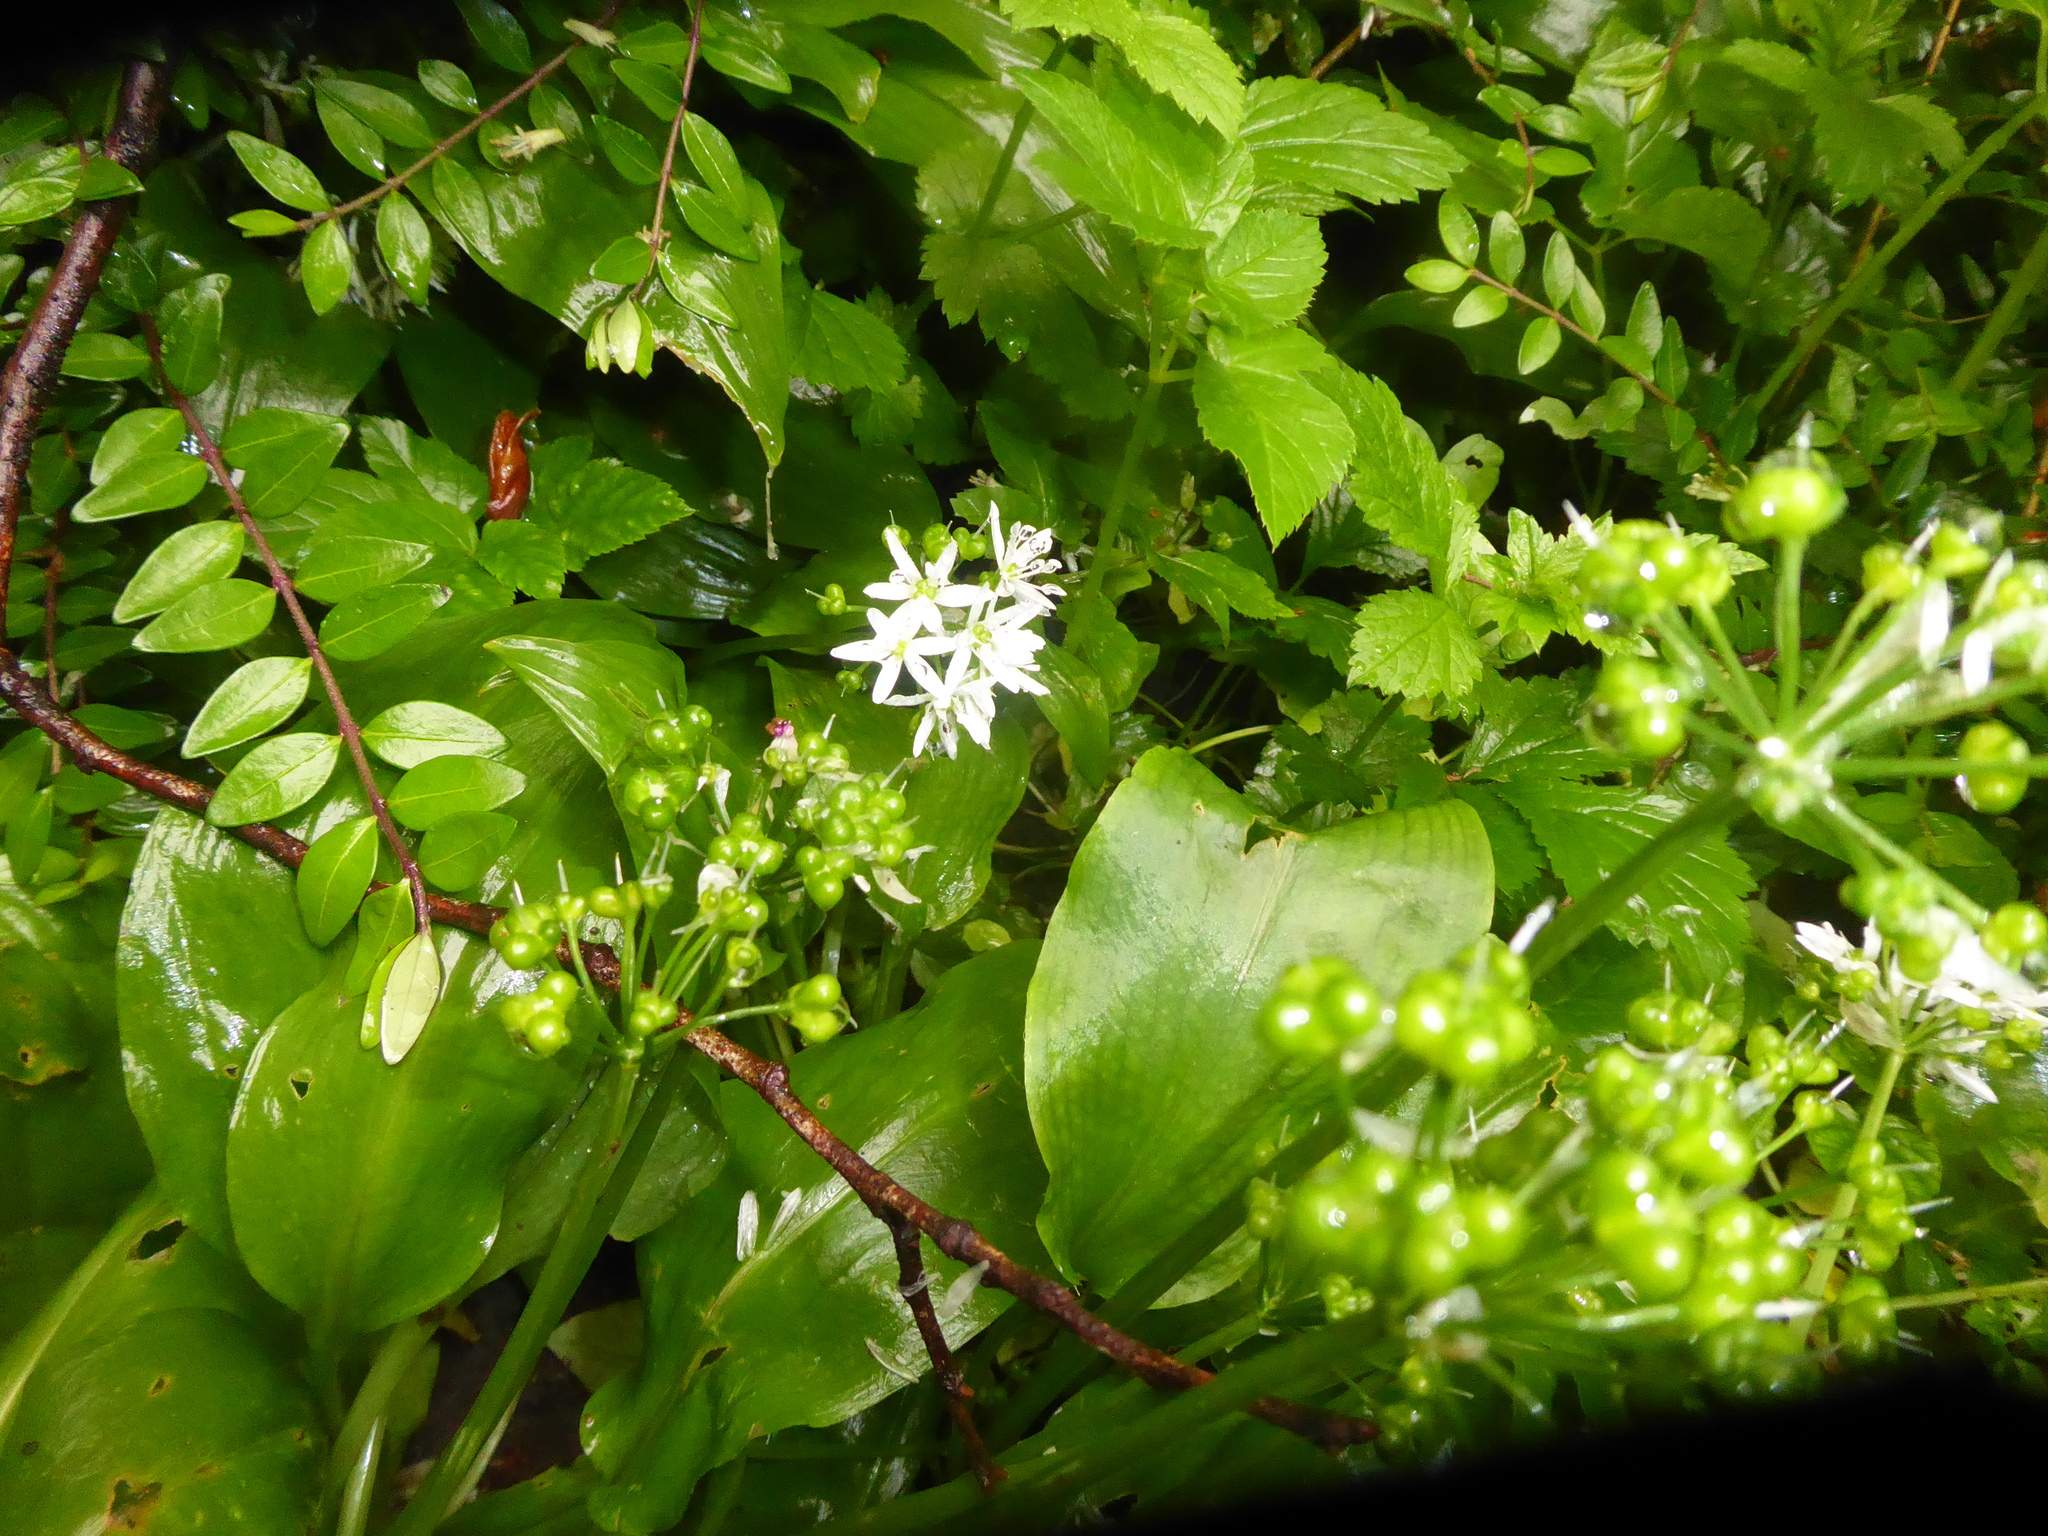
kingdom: Plantae
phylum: Tracheophyta
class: Liliopsida
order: Asparagales
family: Amaryllidaceae
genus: Allium
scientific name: Allium ursinum
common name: Ramsons
